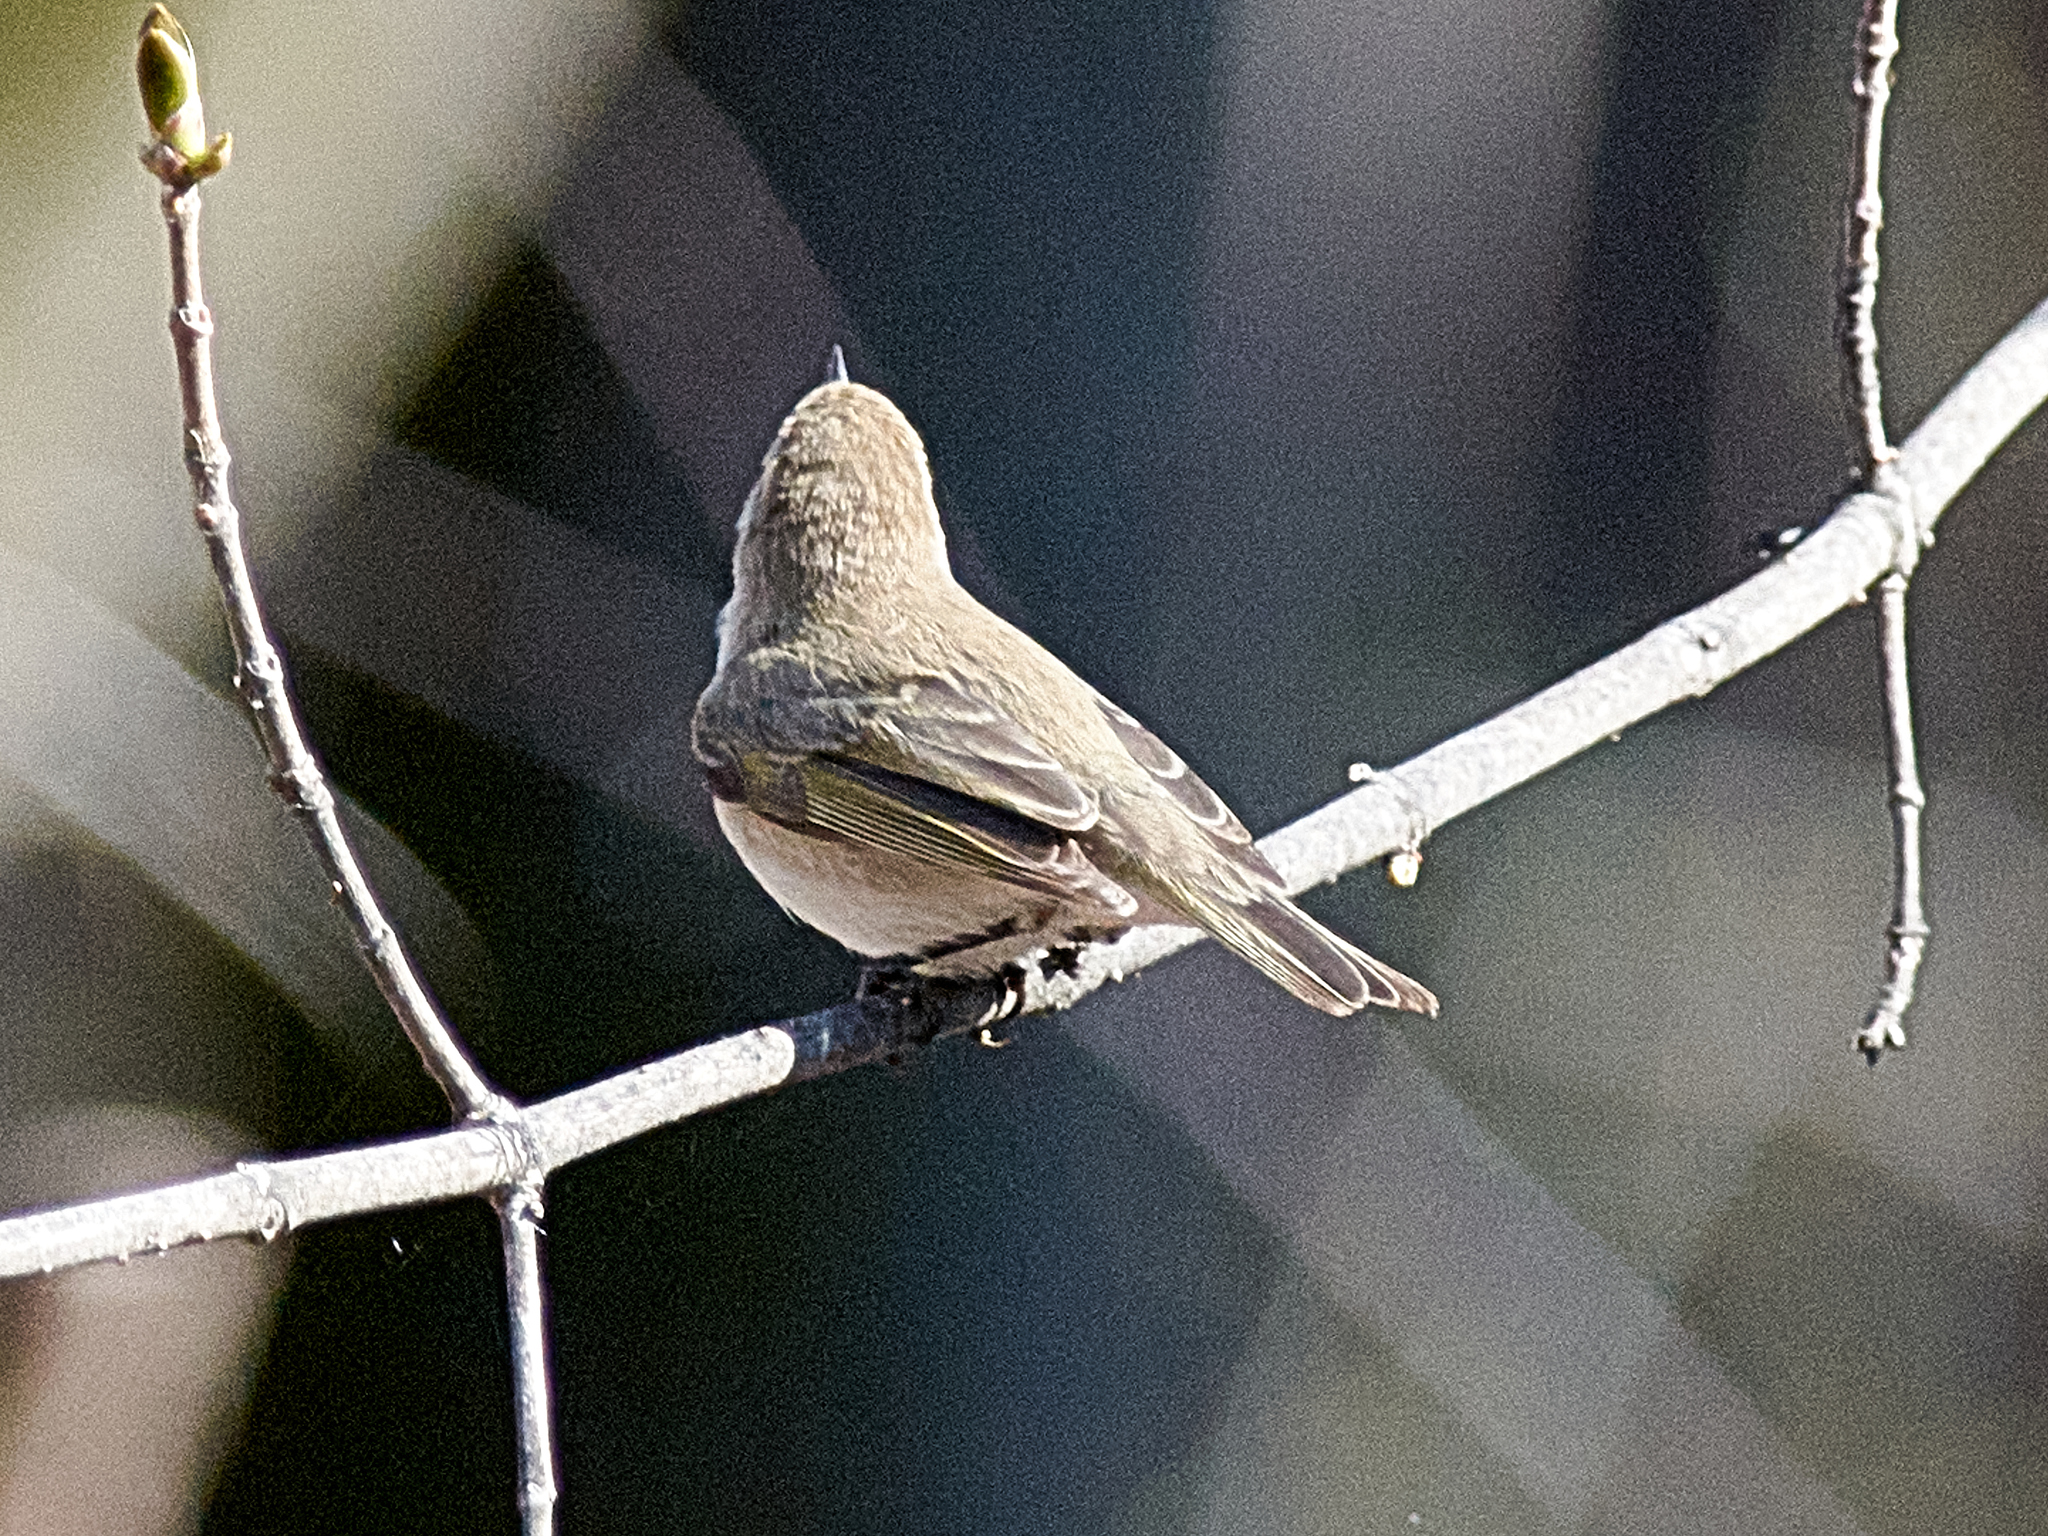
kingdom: Animalia
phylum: Chordata
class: Aves
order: Passeriformes
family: Phylloscopidae
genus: Phylloscopus
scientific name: Phylloscopus collybita
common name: Common chiffchaff
